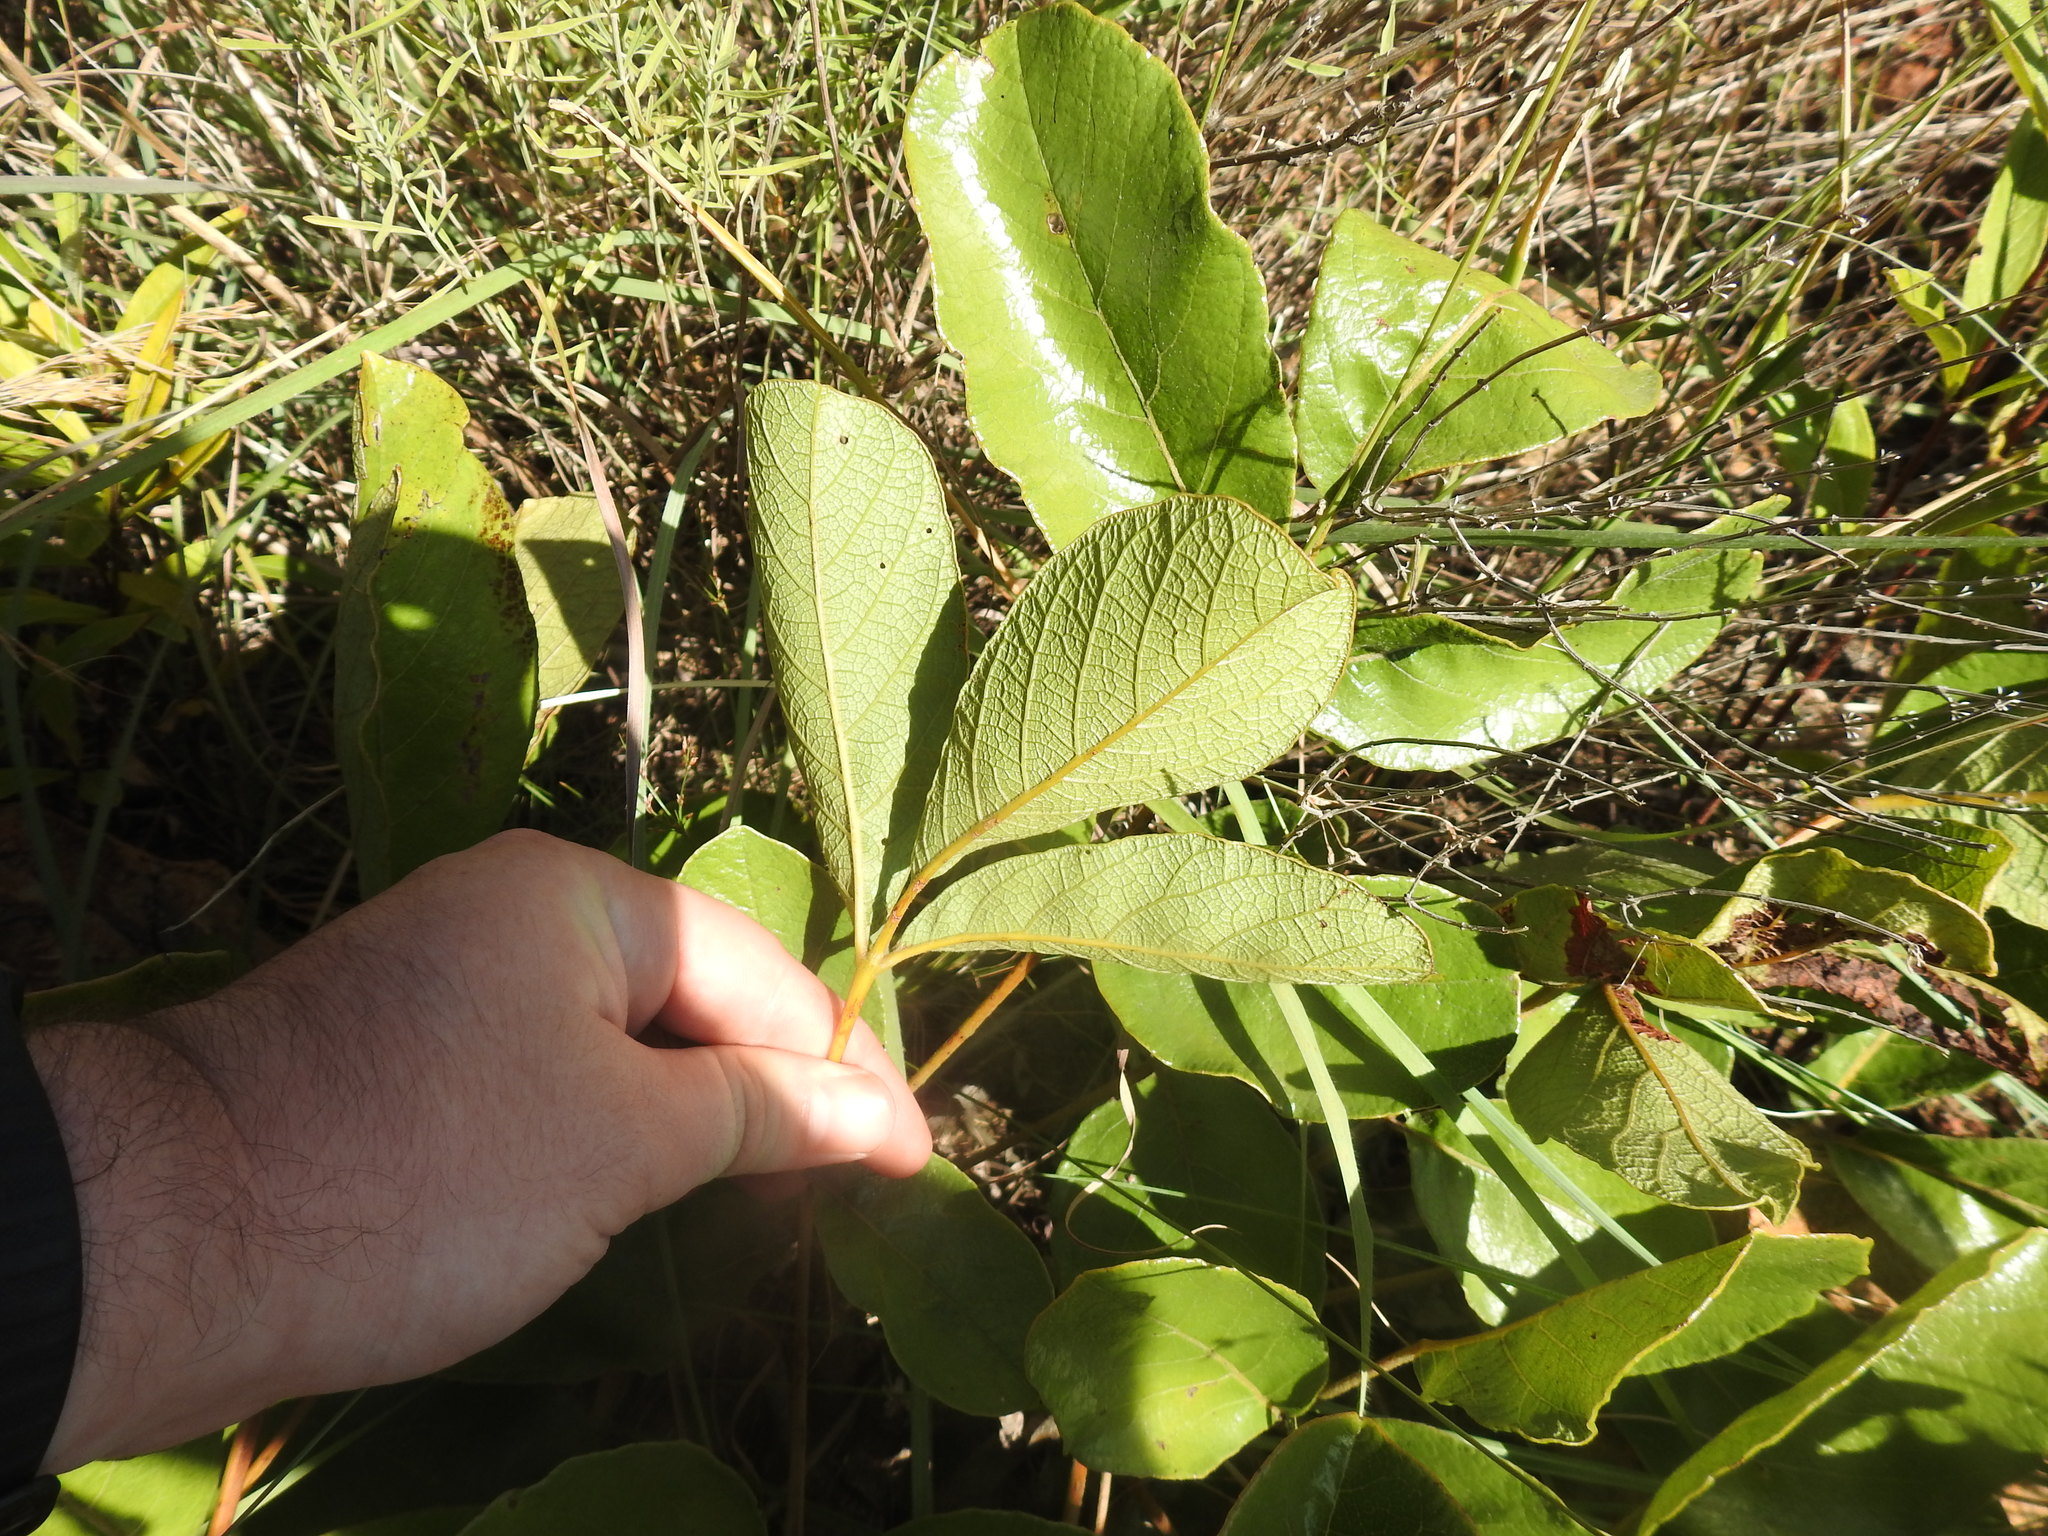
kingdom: Plantae
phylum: Tracheophyta
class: Magnoliopsida
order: Sapindales
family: Anacardiaceae
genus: Lannea
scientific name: Lannea edulis
